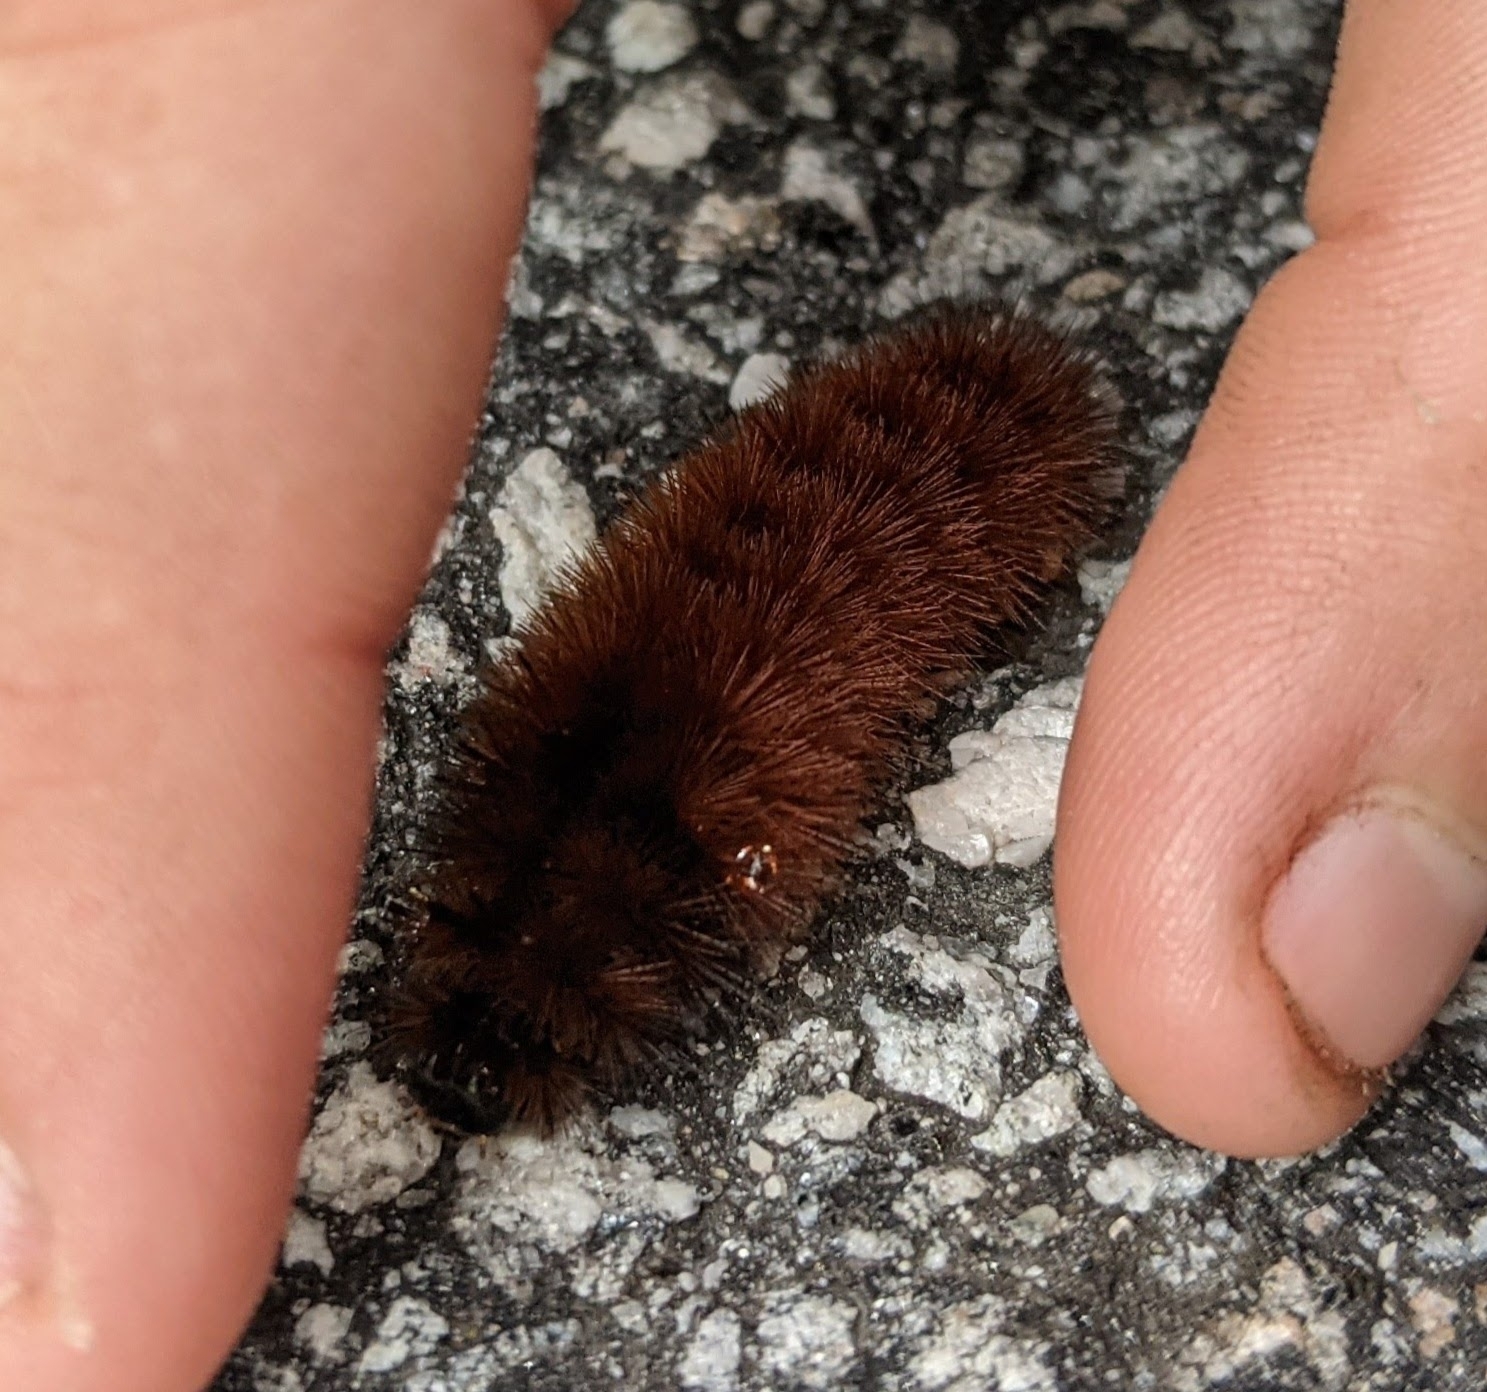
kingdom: Animalia
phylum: Arthropoda
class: Insecta
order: Lepidoptera
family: Erebidae
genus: Pyrrharctia
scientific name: Pyrrharctia isabella
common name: Isabella tiger moth
